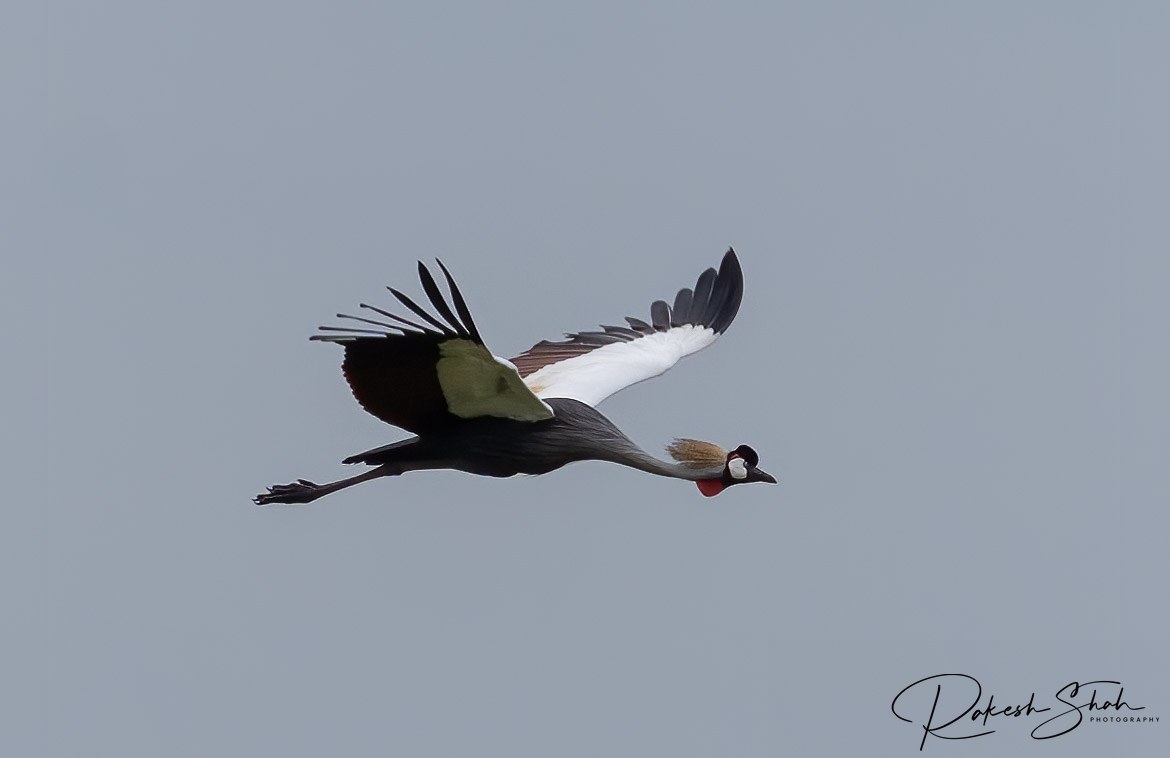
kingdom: Animalia
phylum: Chordata
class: Aves
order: Gruiformes
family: Gruidae
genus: Balearica
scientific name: Balearica regulorum
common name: Grey crowned crane
